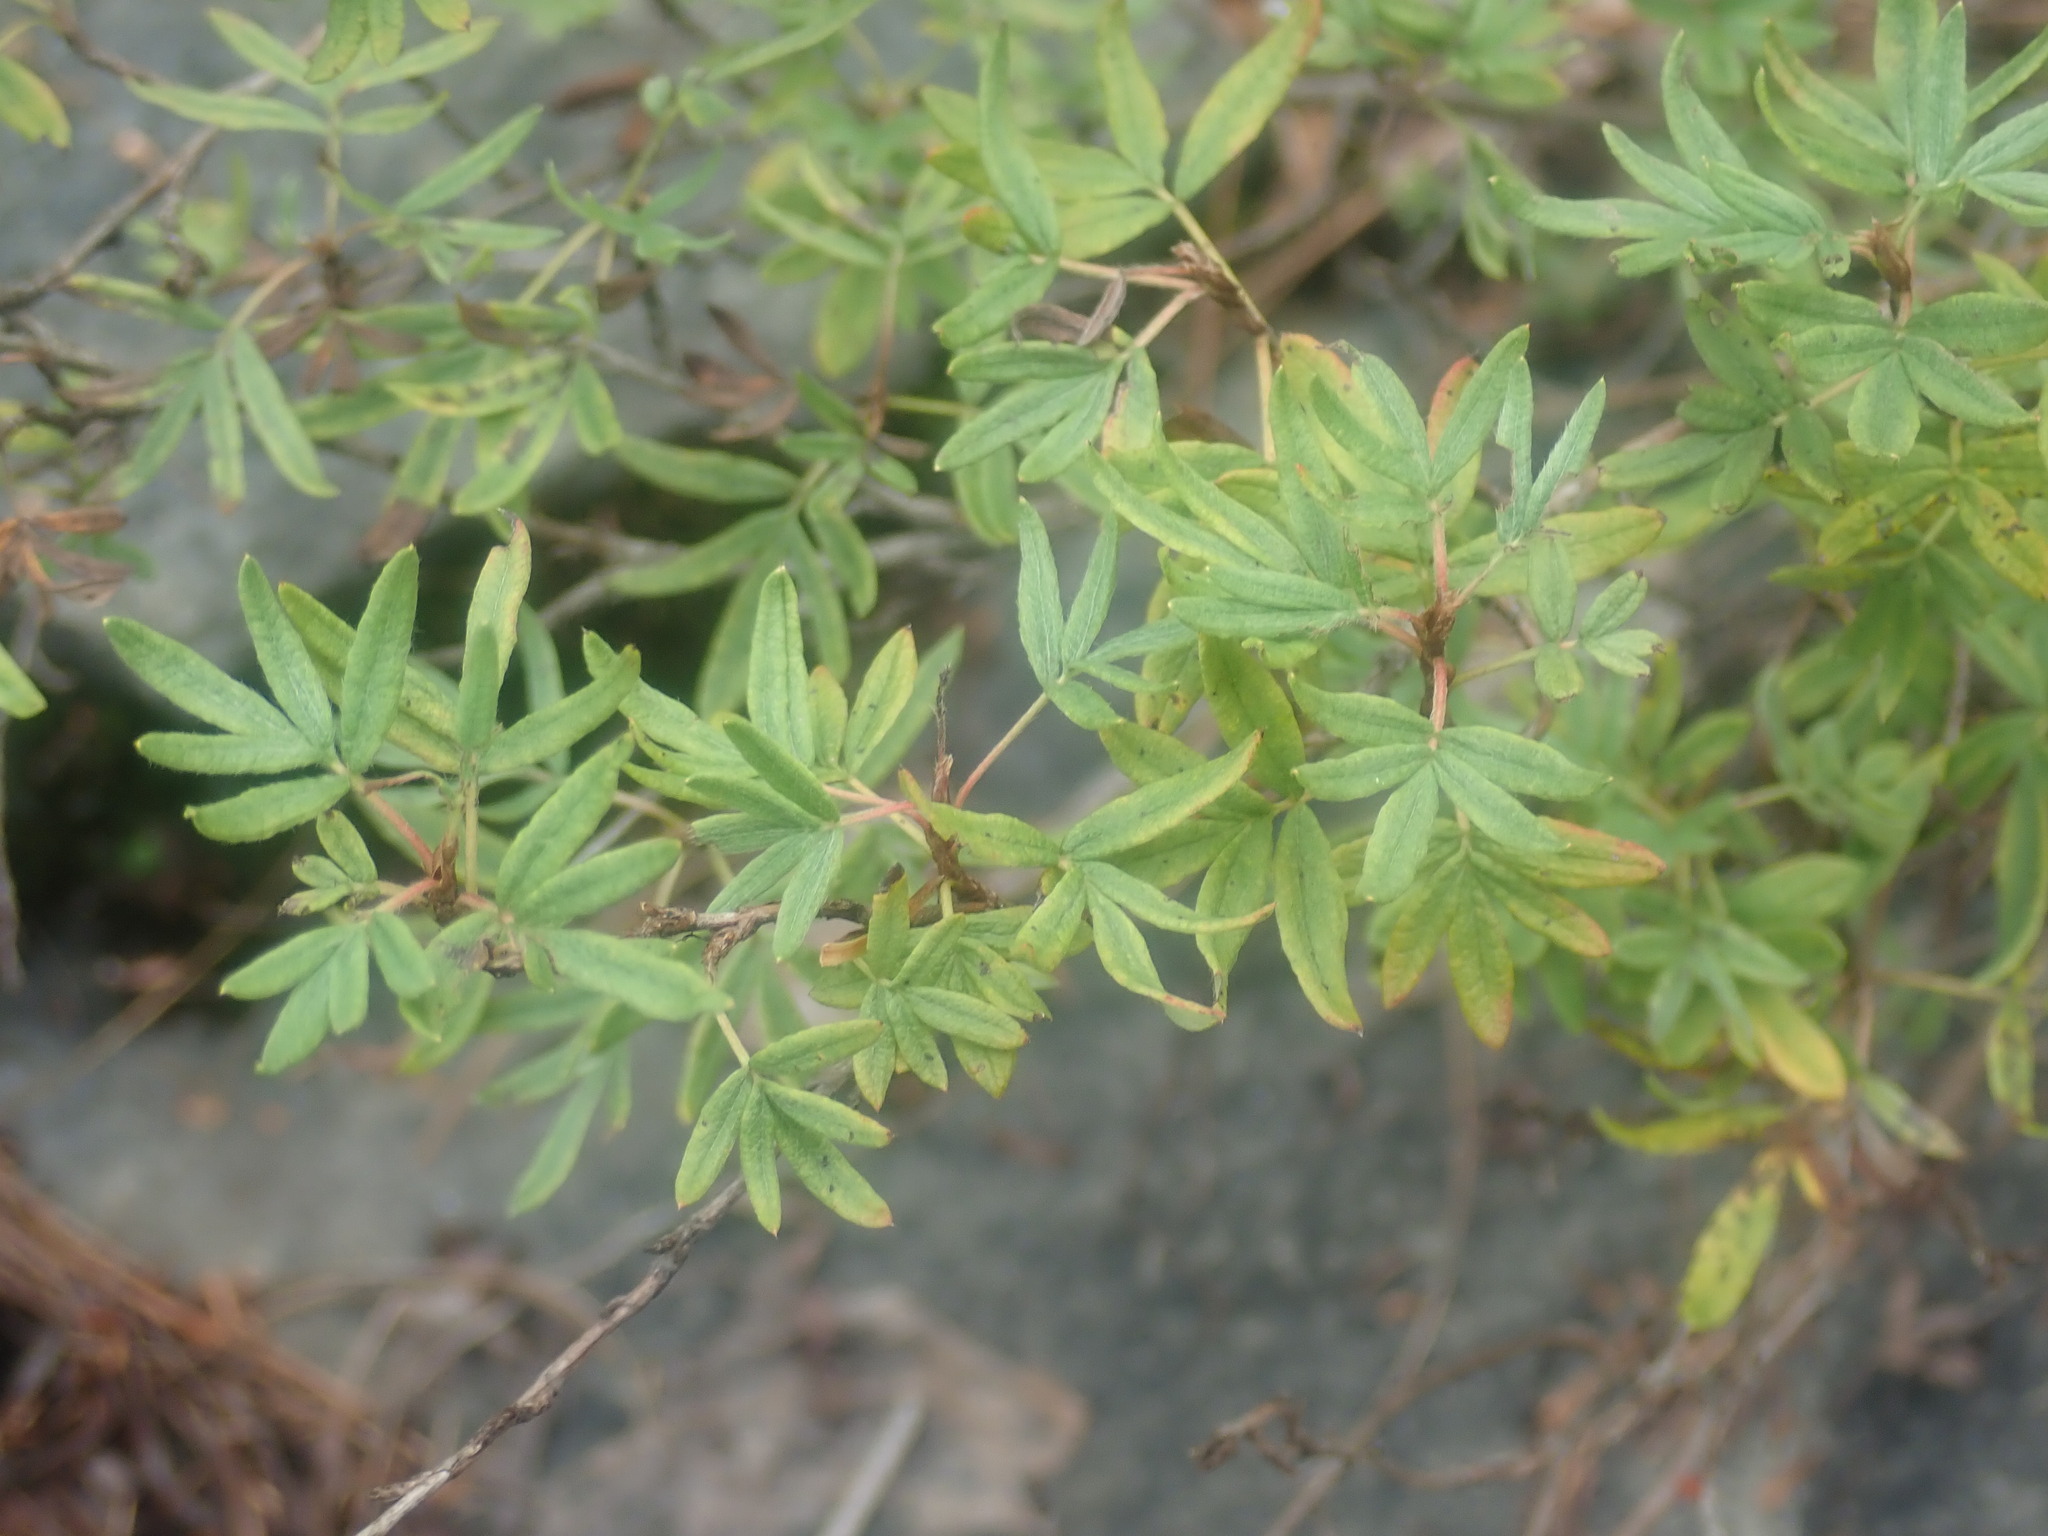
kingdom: Plantae
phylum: Tracheophyta
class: Magnoliopsida
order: Rosales
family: Rosaceae
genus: Dasiphora
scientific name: Dasiphora fruticosa
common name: Shrubby cinquefoil
